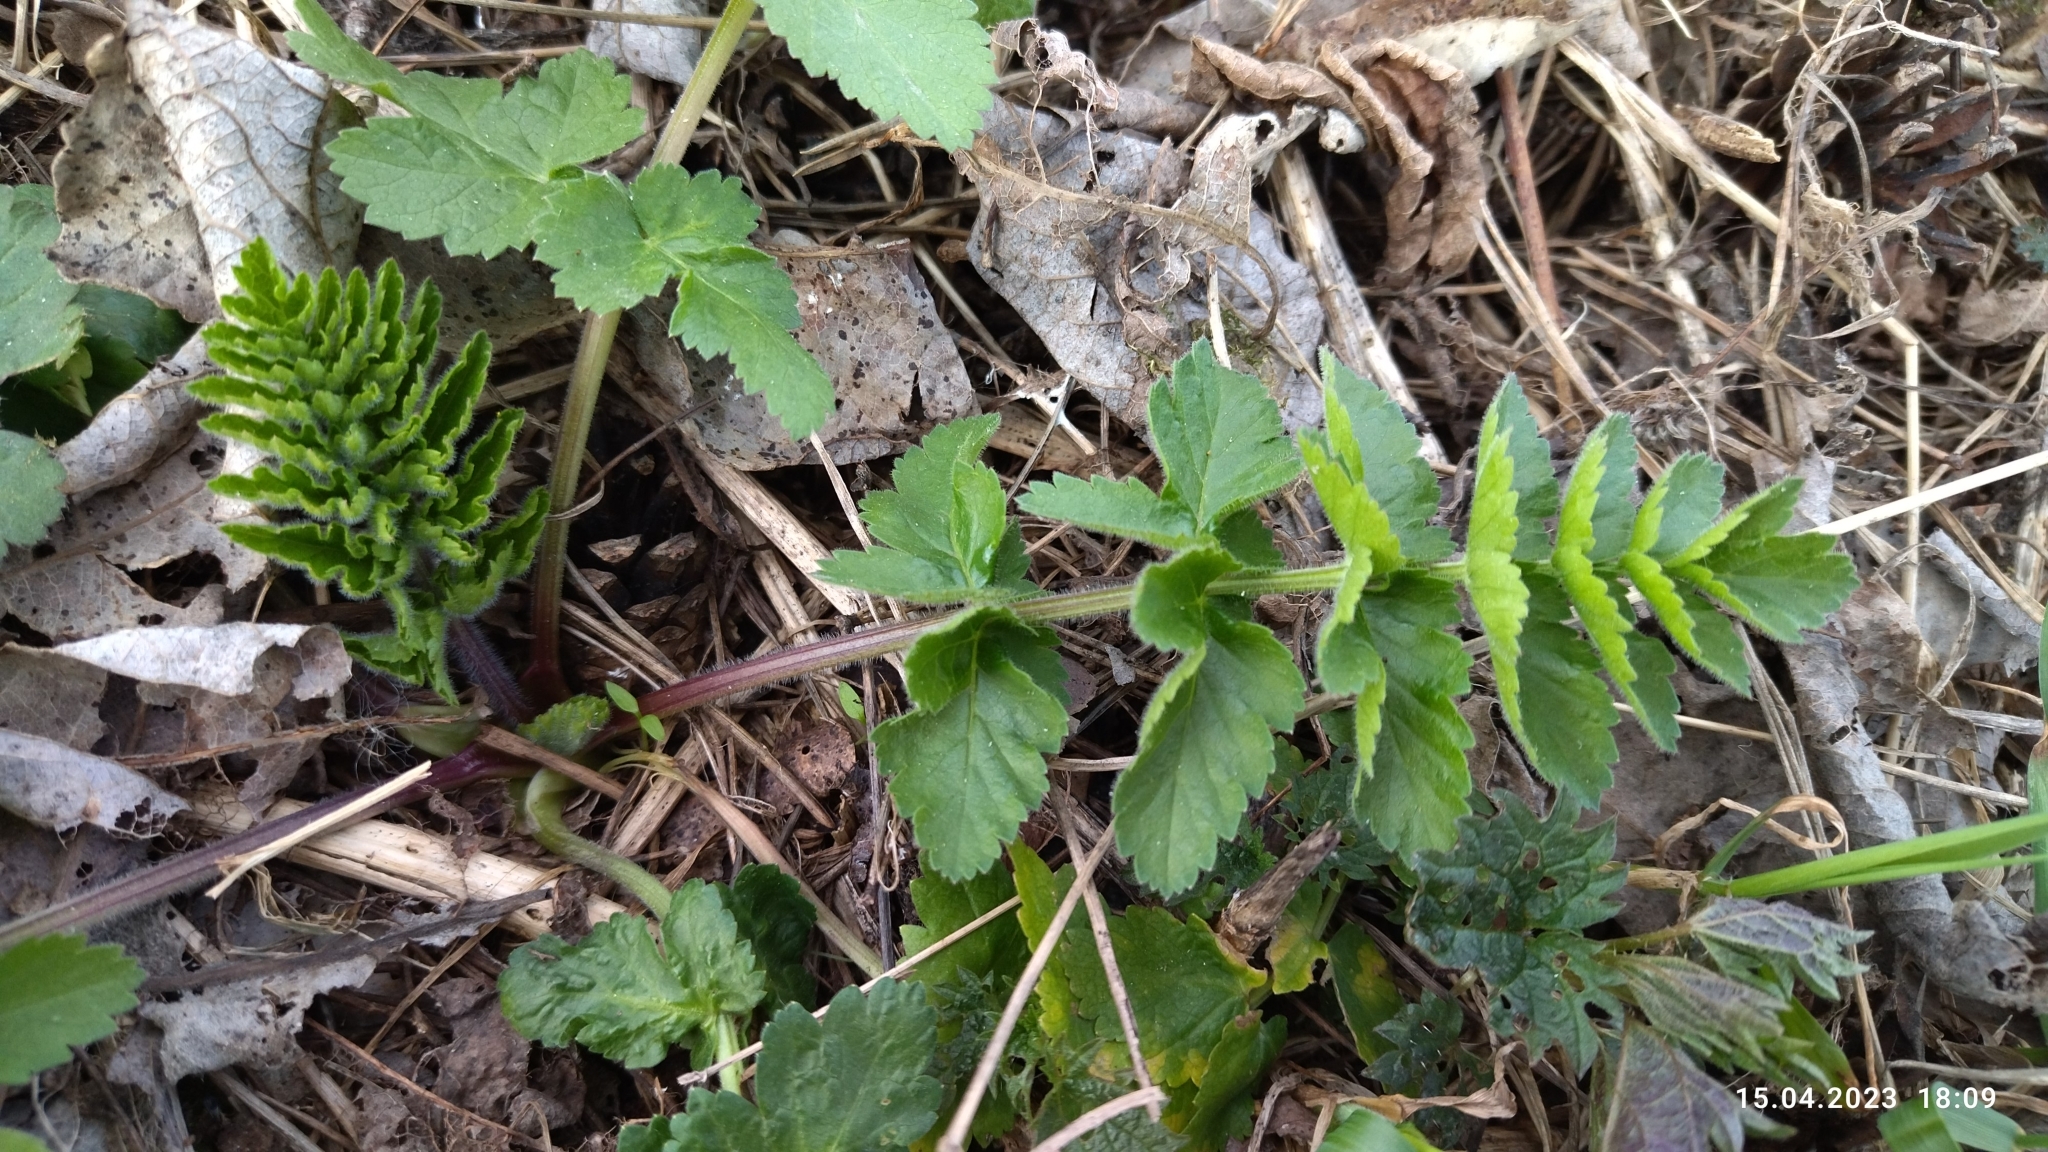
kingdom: Plantae
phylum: Tracheophyta
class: Magnoliopsida
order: Apiales
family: Apiaceae
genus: Pimpinella
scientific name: Pimpinella saxifraga
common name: Burnet-saxifrage
